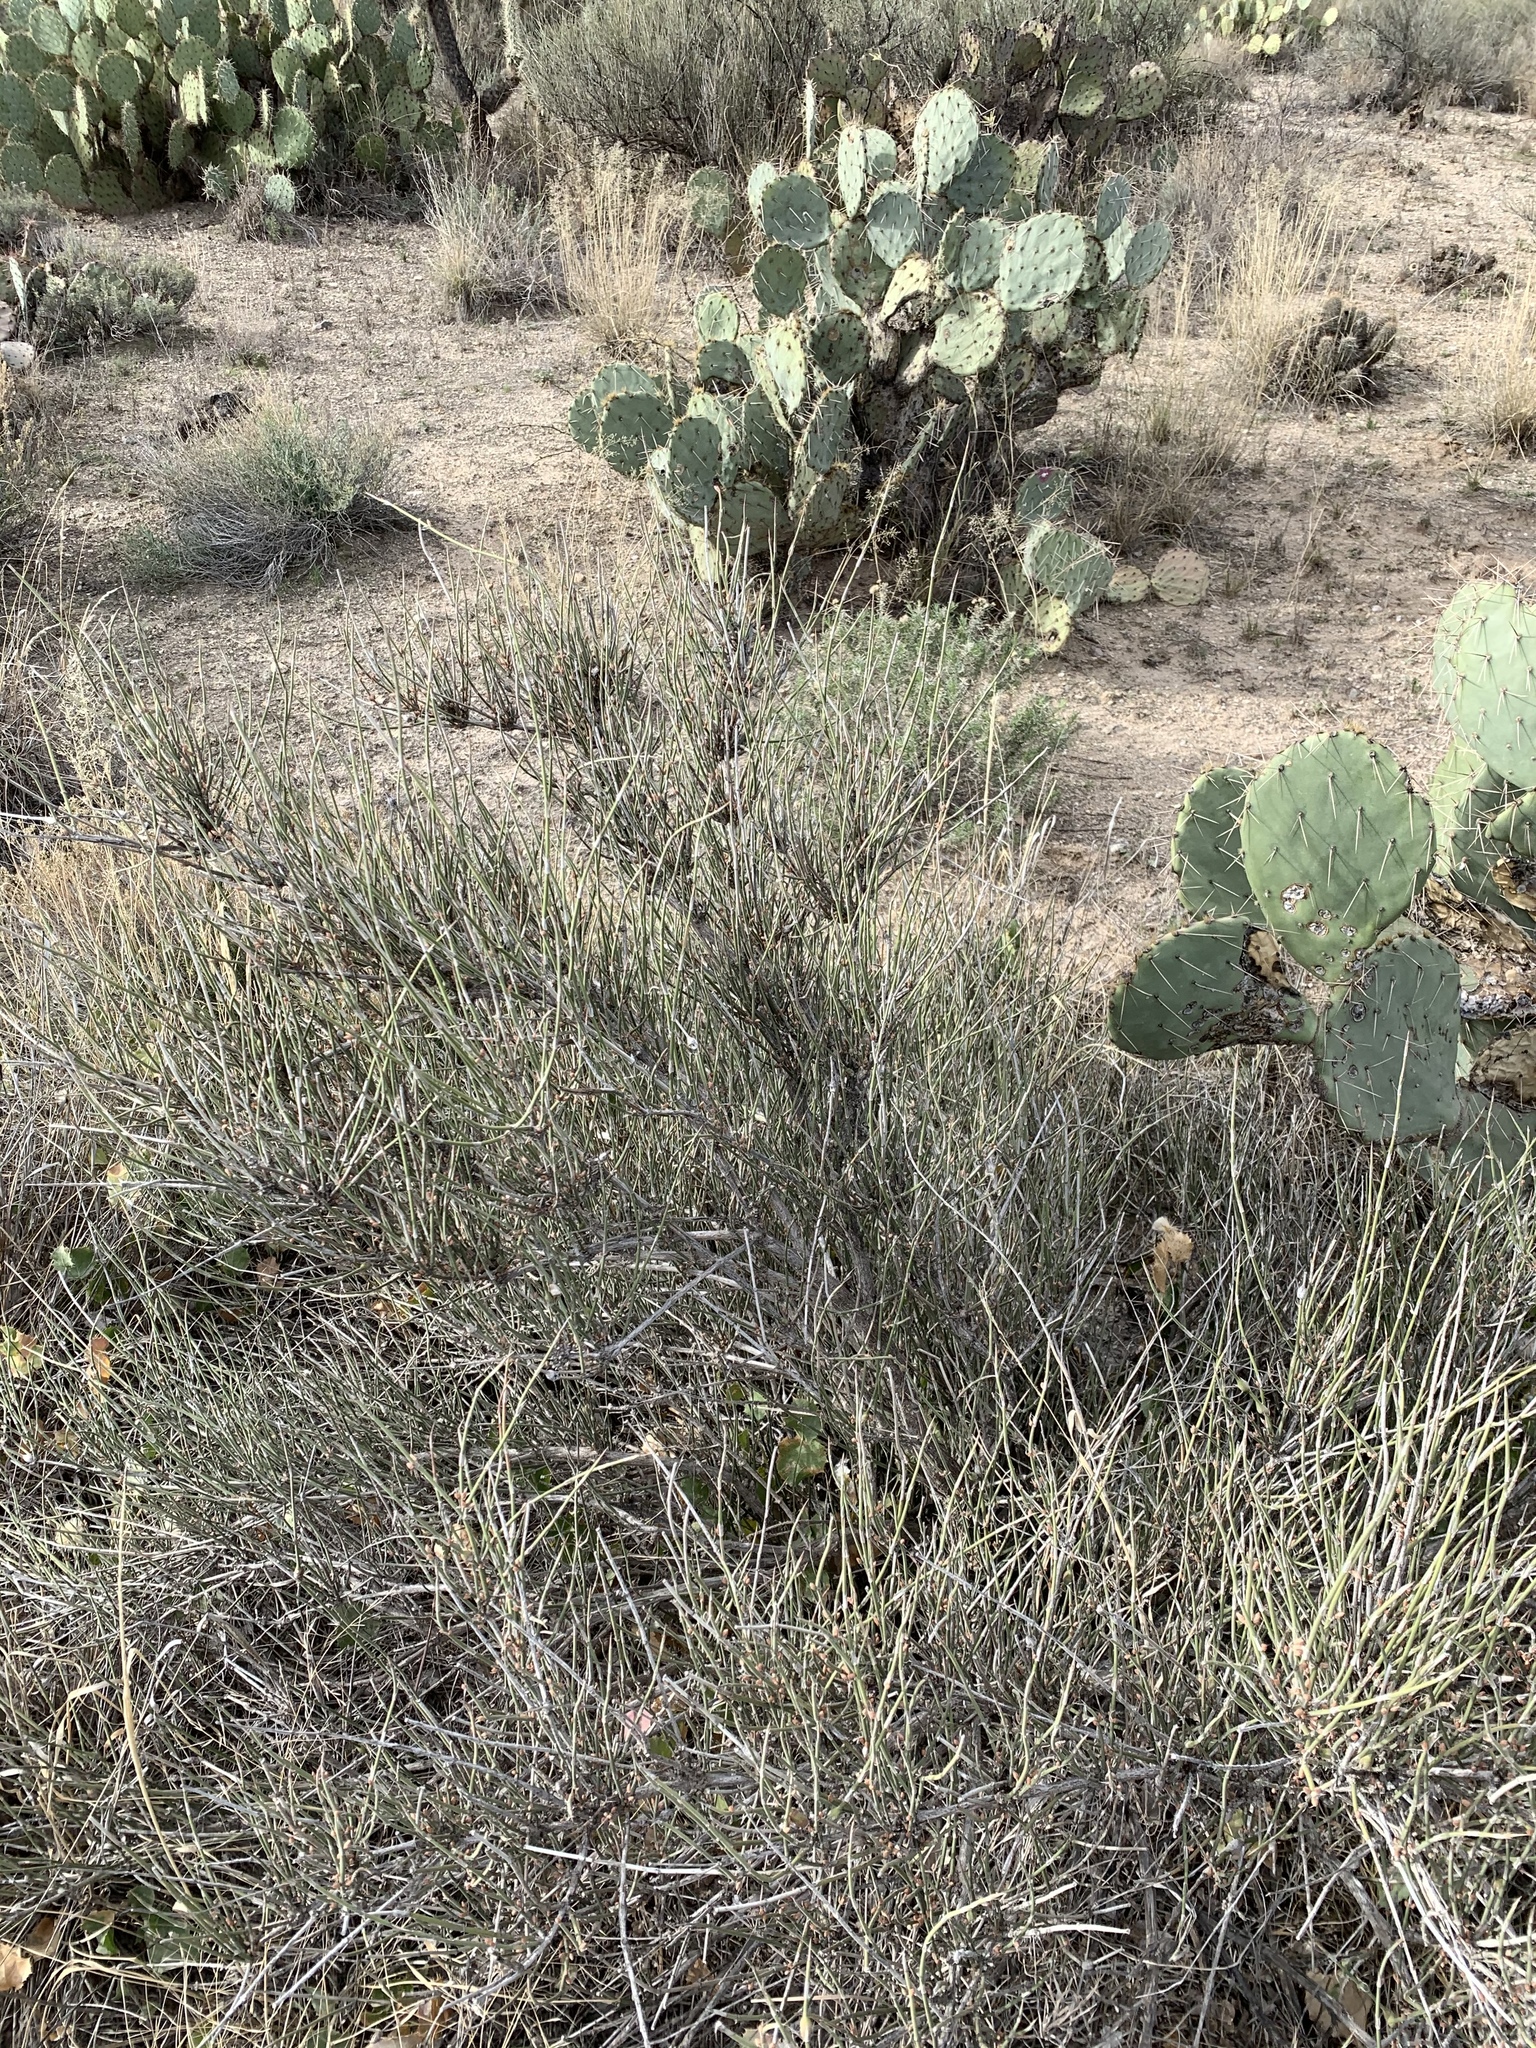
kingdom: Plantae
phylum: Tracheophyta
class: Gnetopsida
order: Ephedrales
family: Ephedraceae
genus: Ephedra
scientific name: Ephedra trifurca
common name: Mexican-tea
